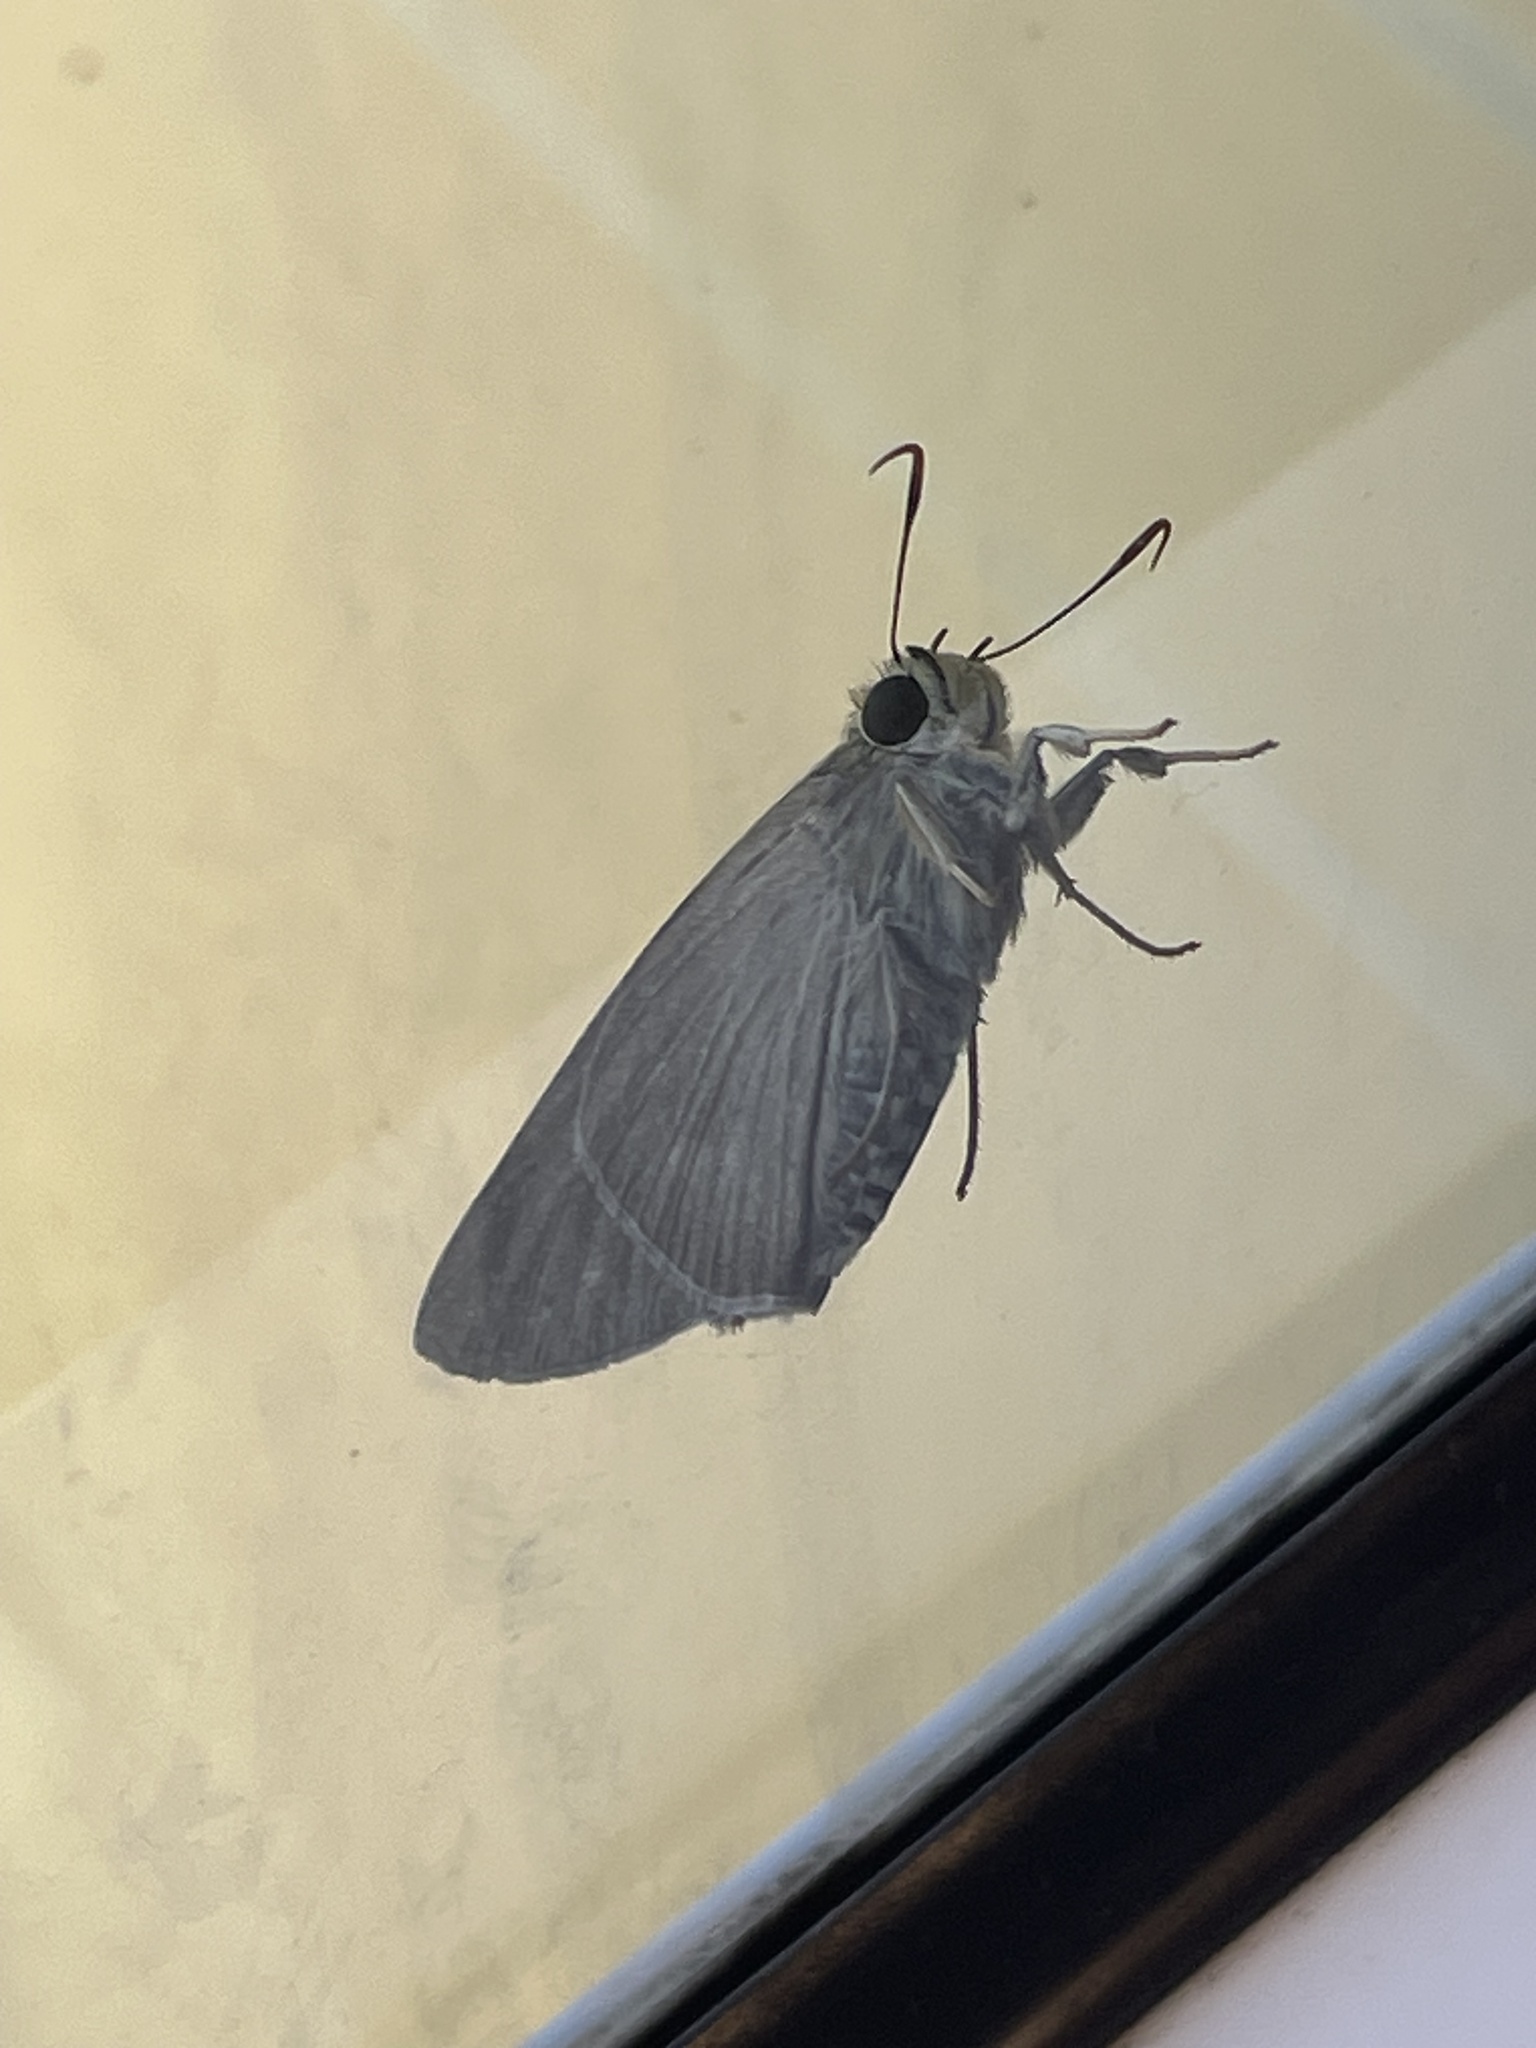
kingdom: Animalia
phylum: Arthropoda
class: Insecta
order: Lepidoptera
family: Hesperiidae
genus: Badamia
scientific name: Badamia exclamationis
